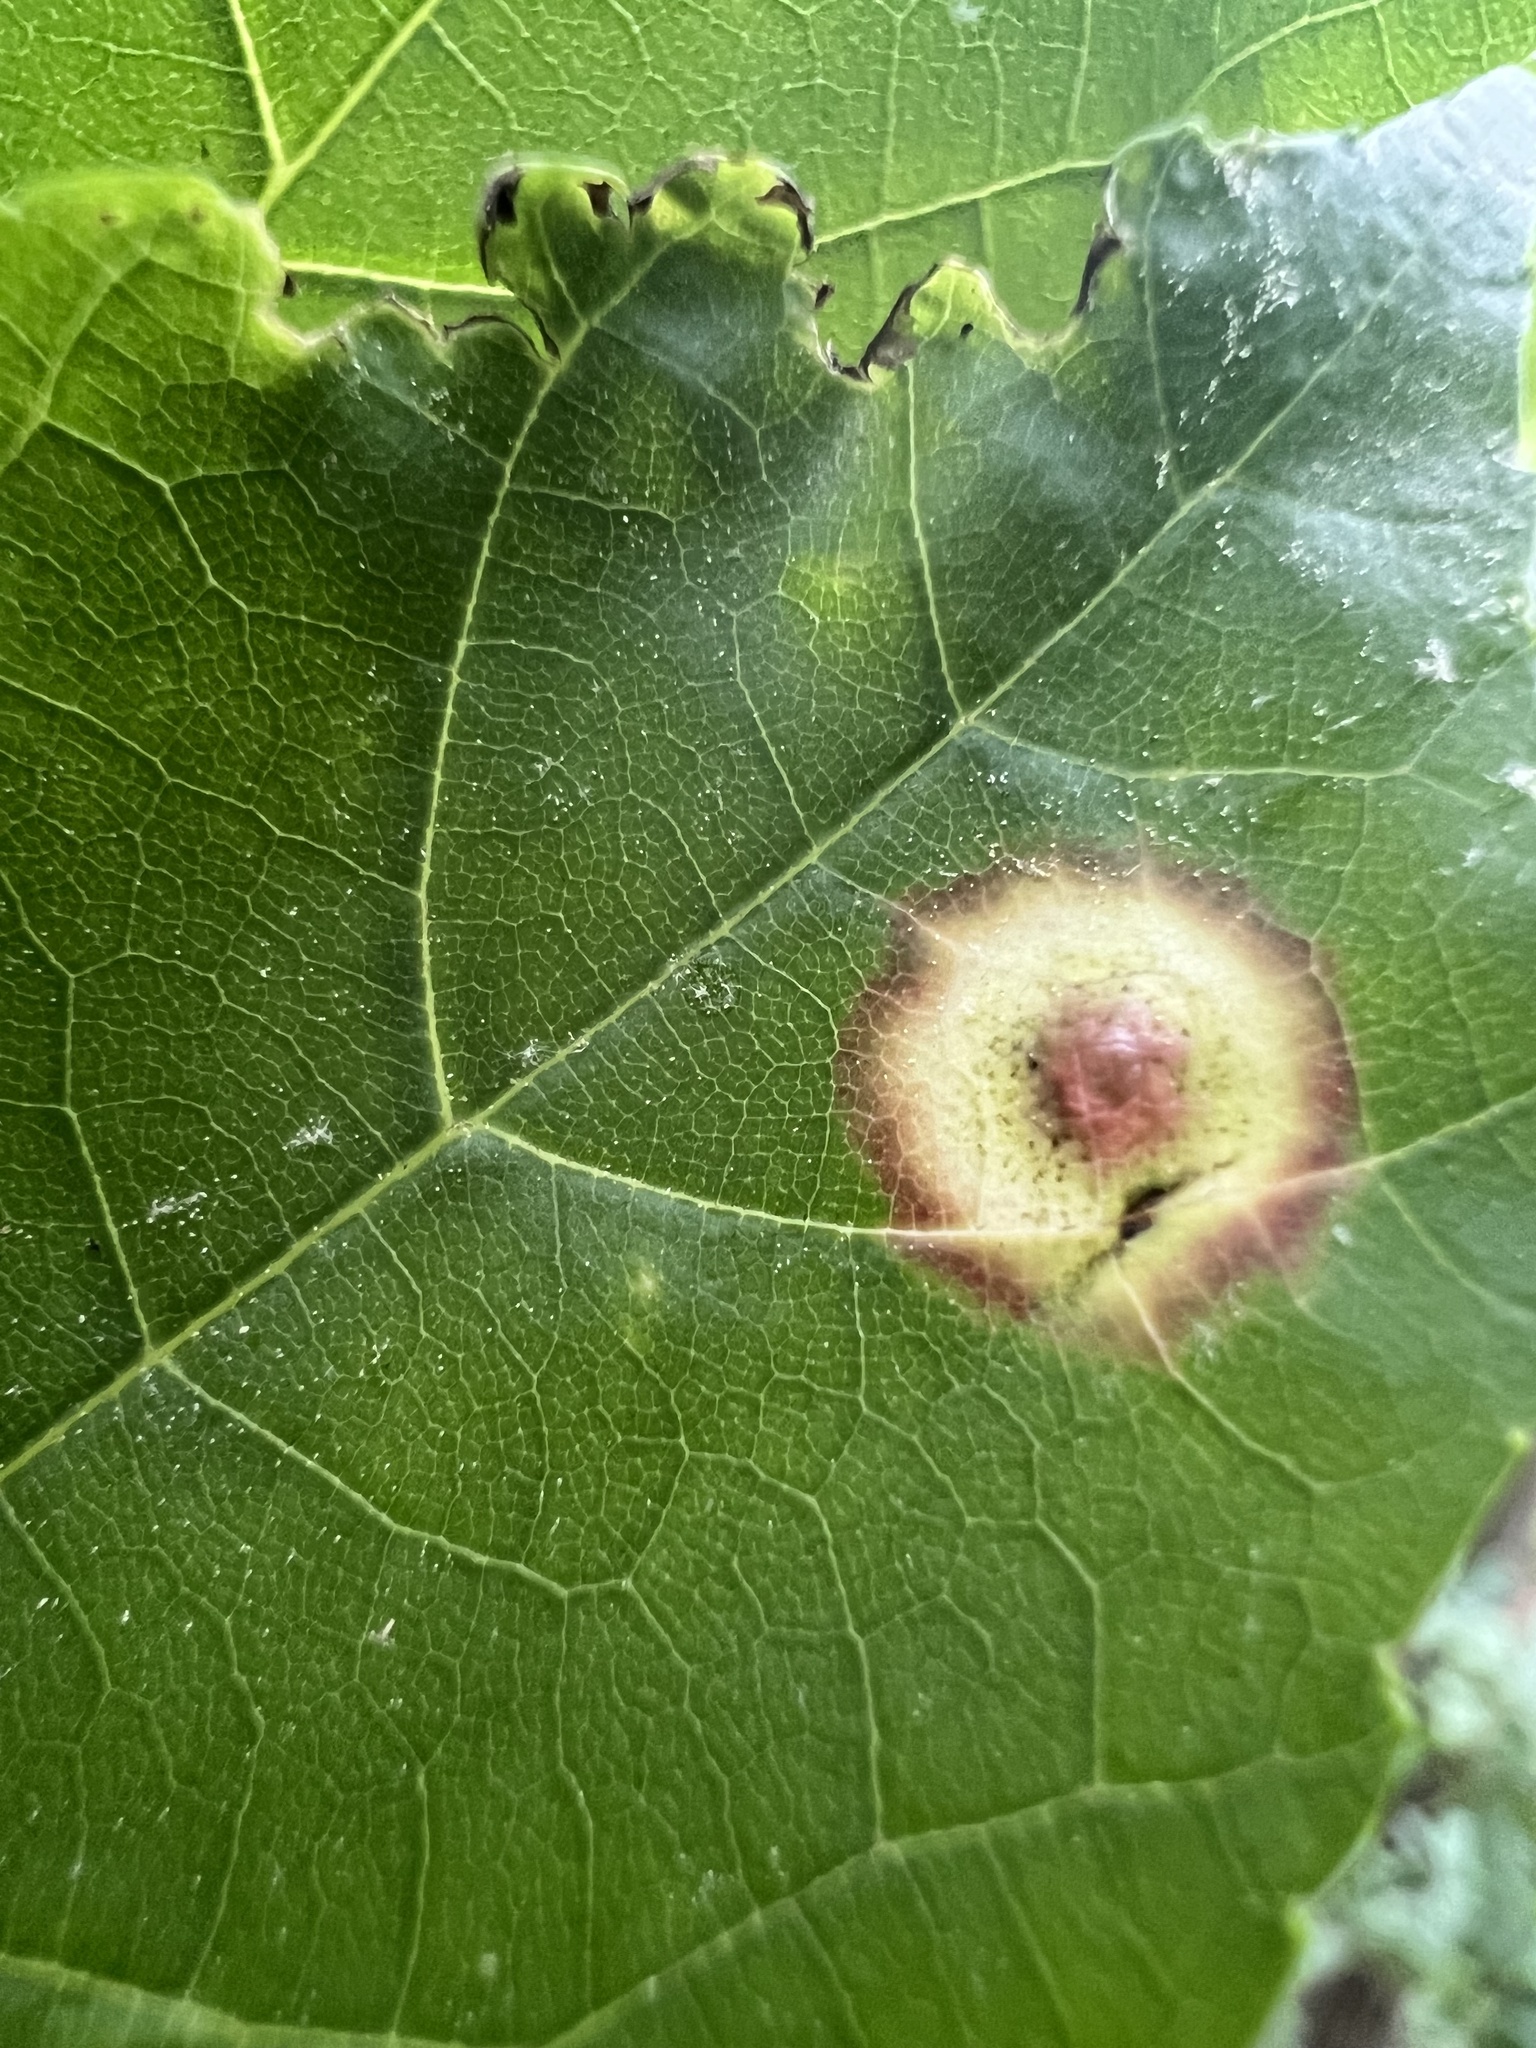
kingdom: Animalia
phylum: Arthropoda
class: Insecta
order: Diptera
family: Cecidomyiidae
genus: Acericecis
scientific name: Acericecis ocellaris
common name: Ocellate gall midge
